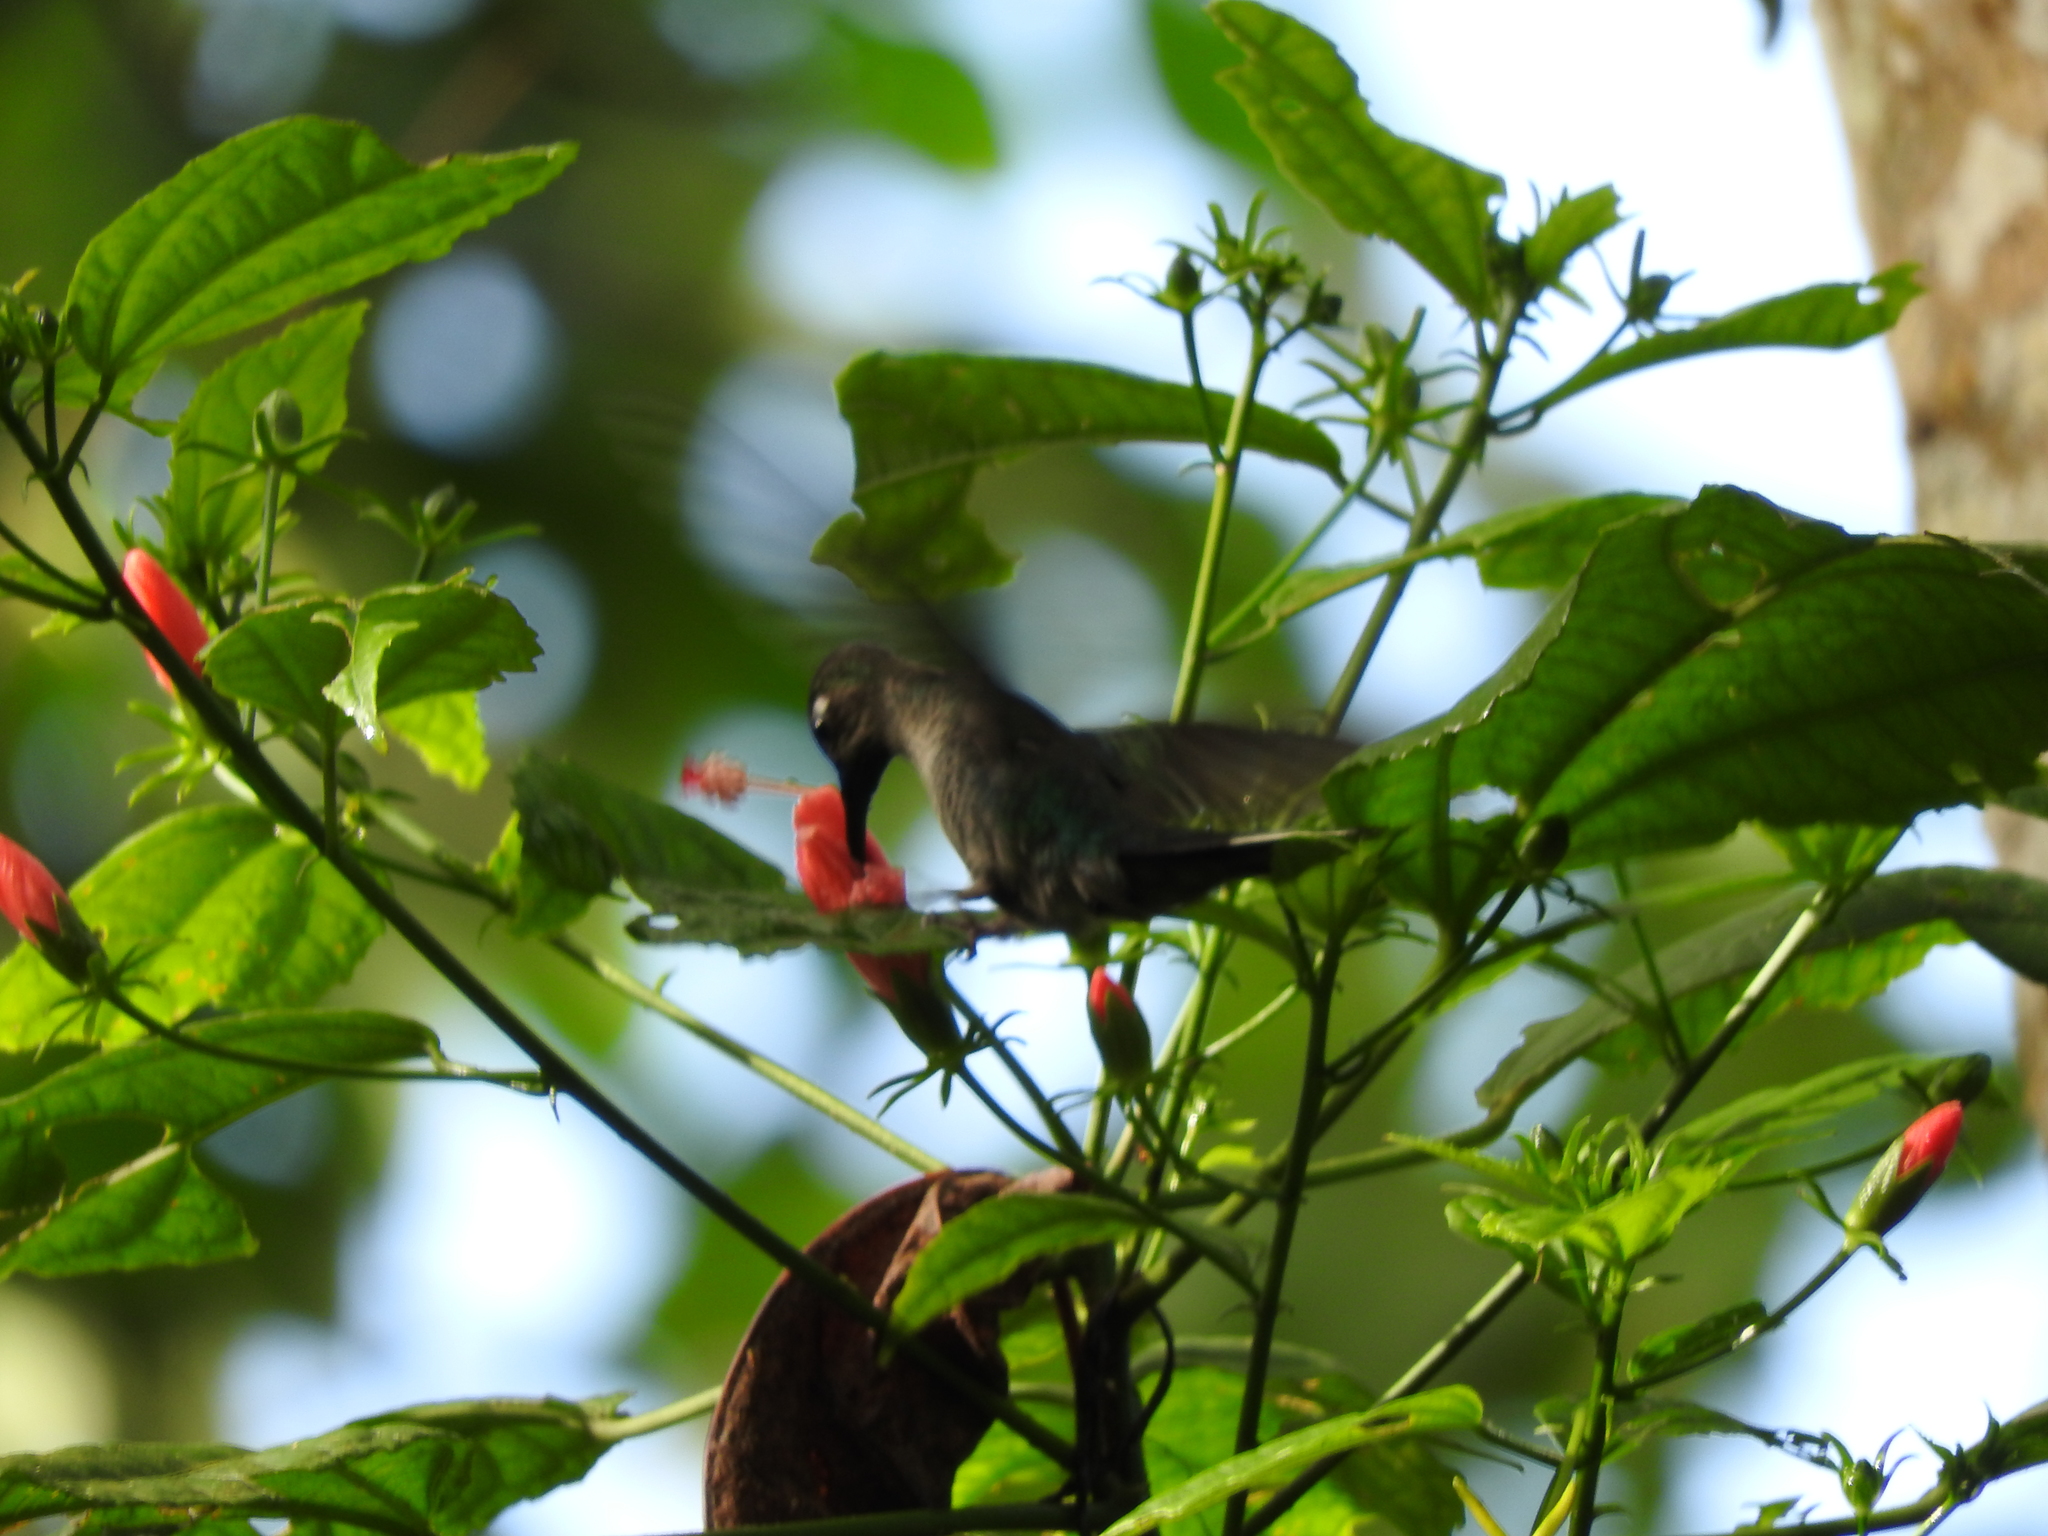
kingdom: Animalia
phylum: Chordata
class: Aves
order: Apodiformes
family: Trochilidae
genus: Campylopterus
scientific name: Campylopterus hemileucurus
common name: Violet sabrewing
